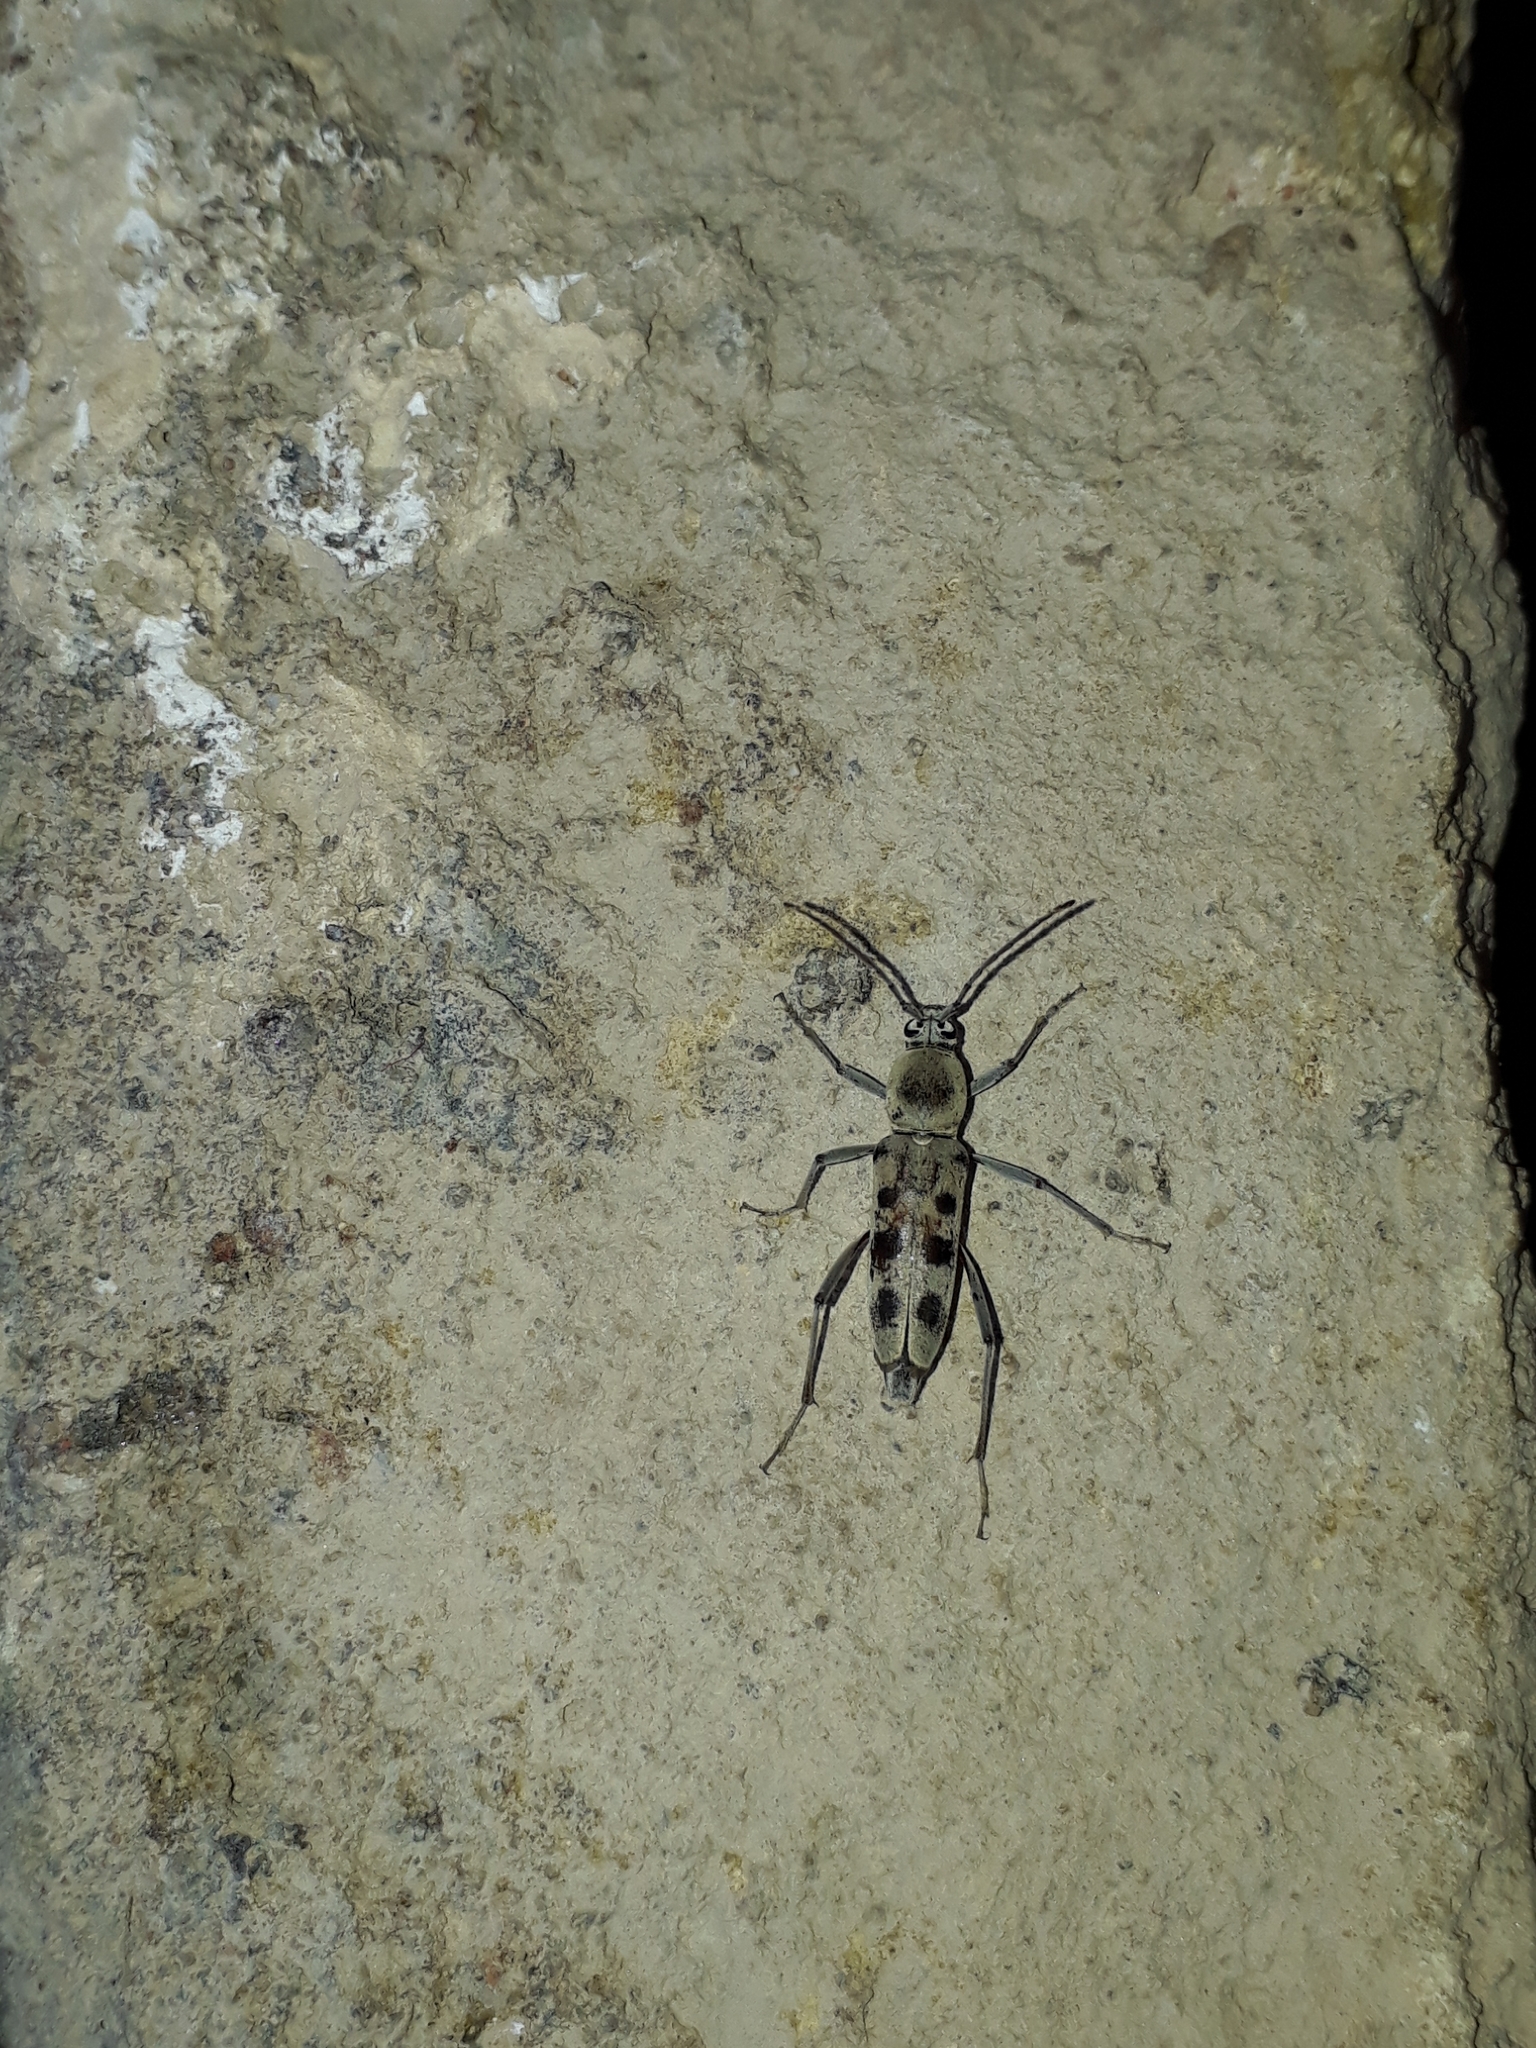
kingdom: Animalia
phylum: Arthropoda
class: Insecta
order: Coleoptera
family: Cerambycidae
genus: Chlorophorus
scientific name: Chlorophorus faldermanni
